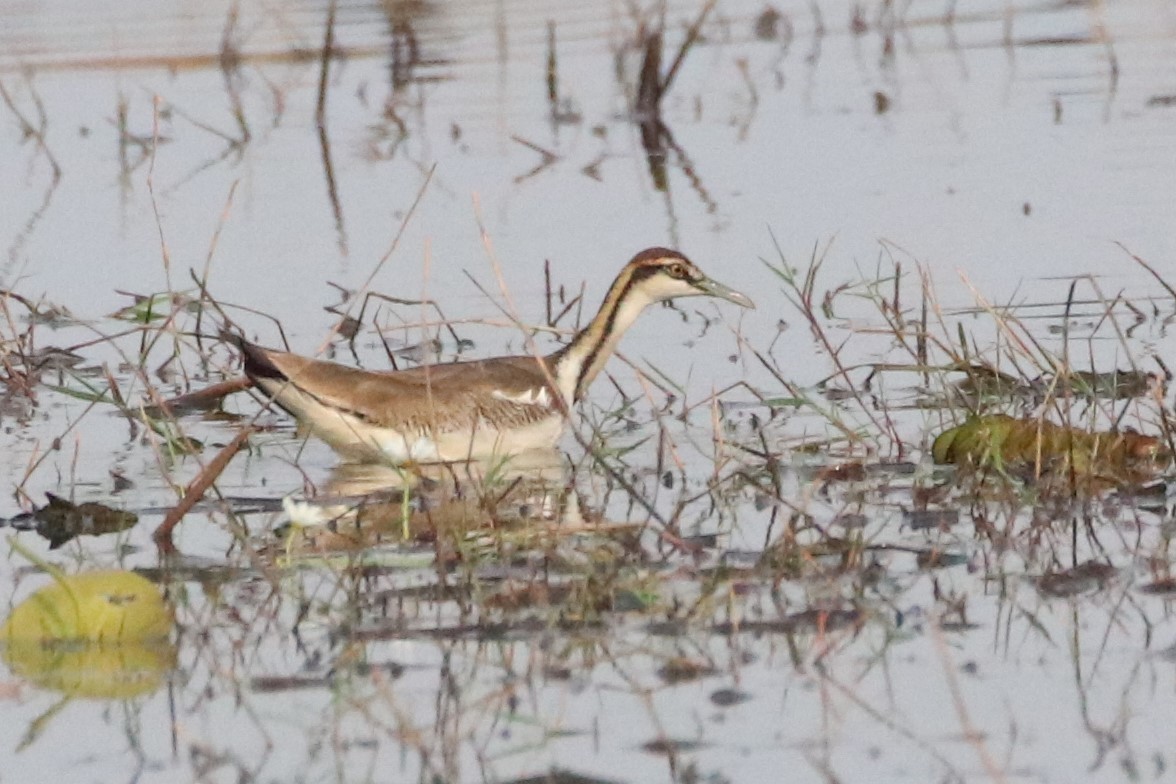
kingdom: Animalia
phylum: Chordata
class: Aves
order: Charadriiformes
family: Jacanidae
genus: Hydrophasianus
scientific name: Hydrophasianus chirurgus
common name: Pheasant-tailed jacana
